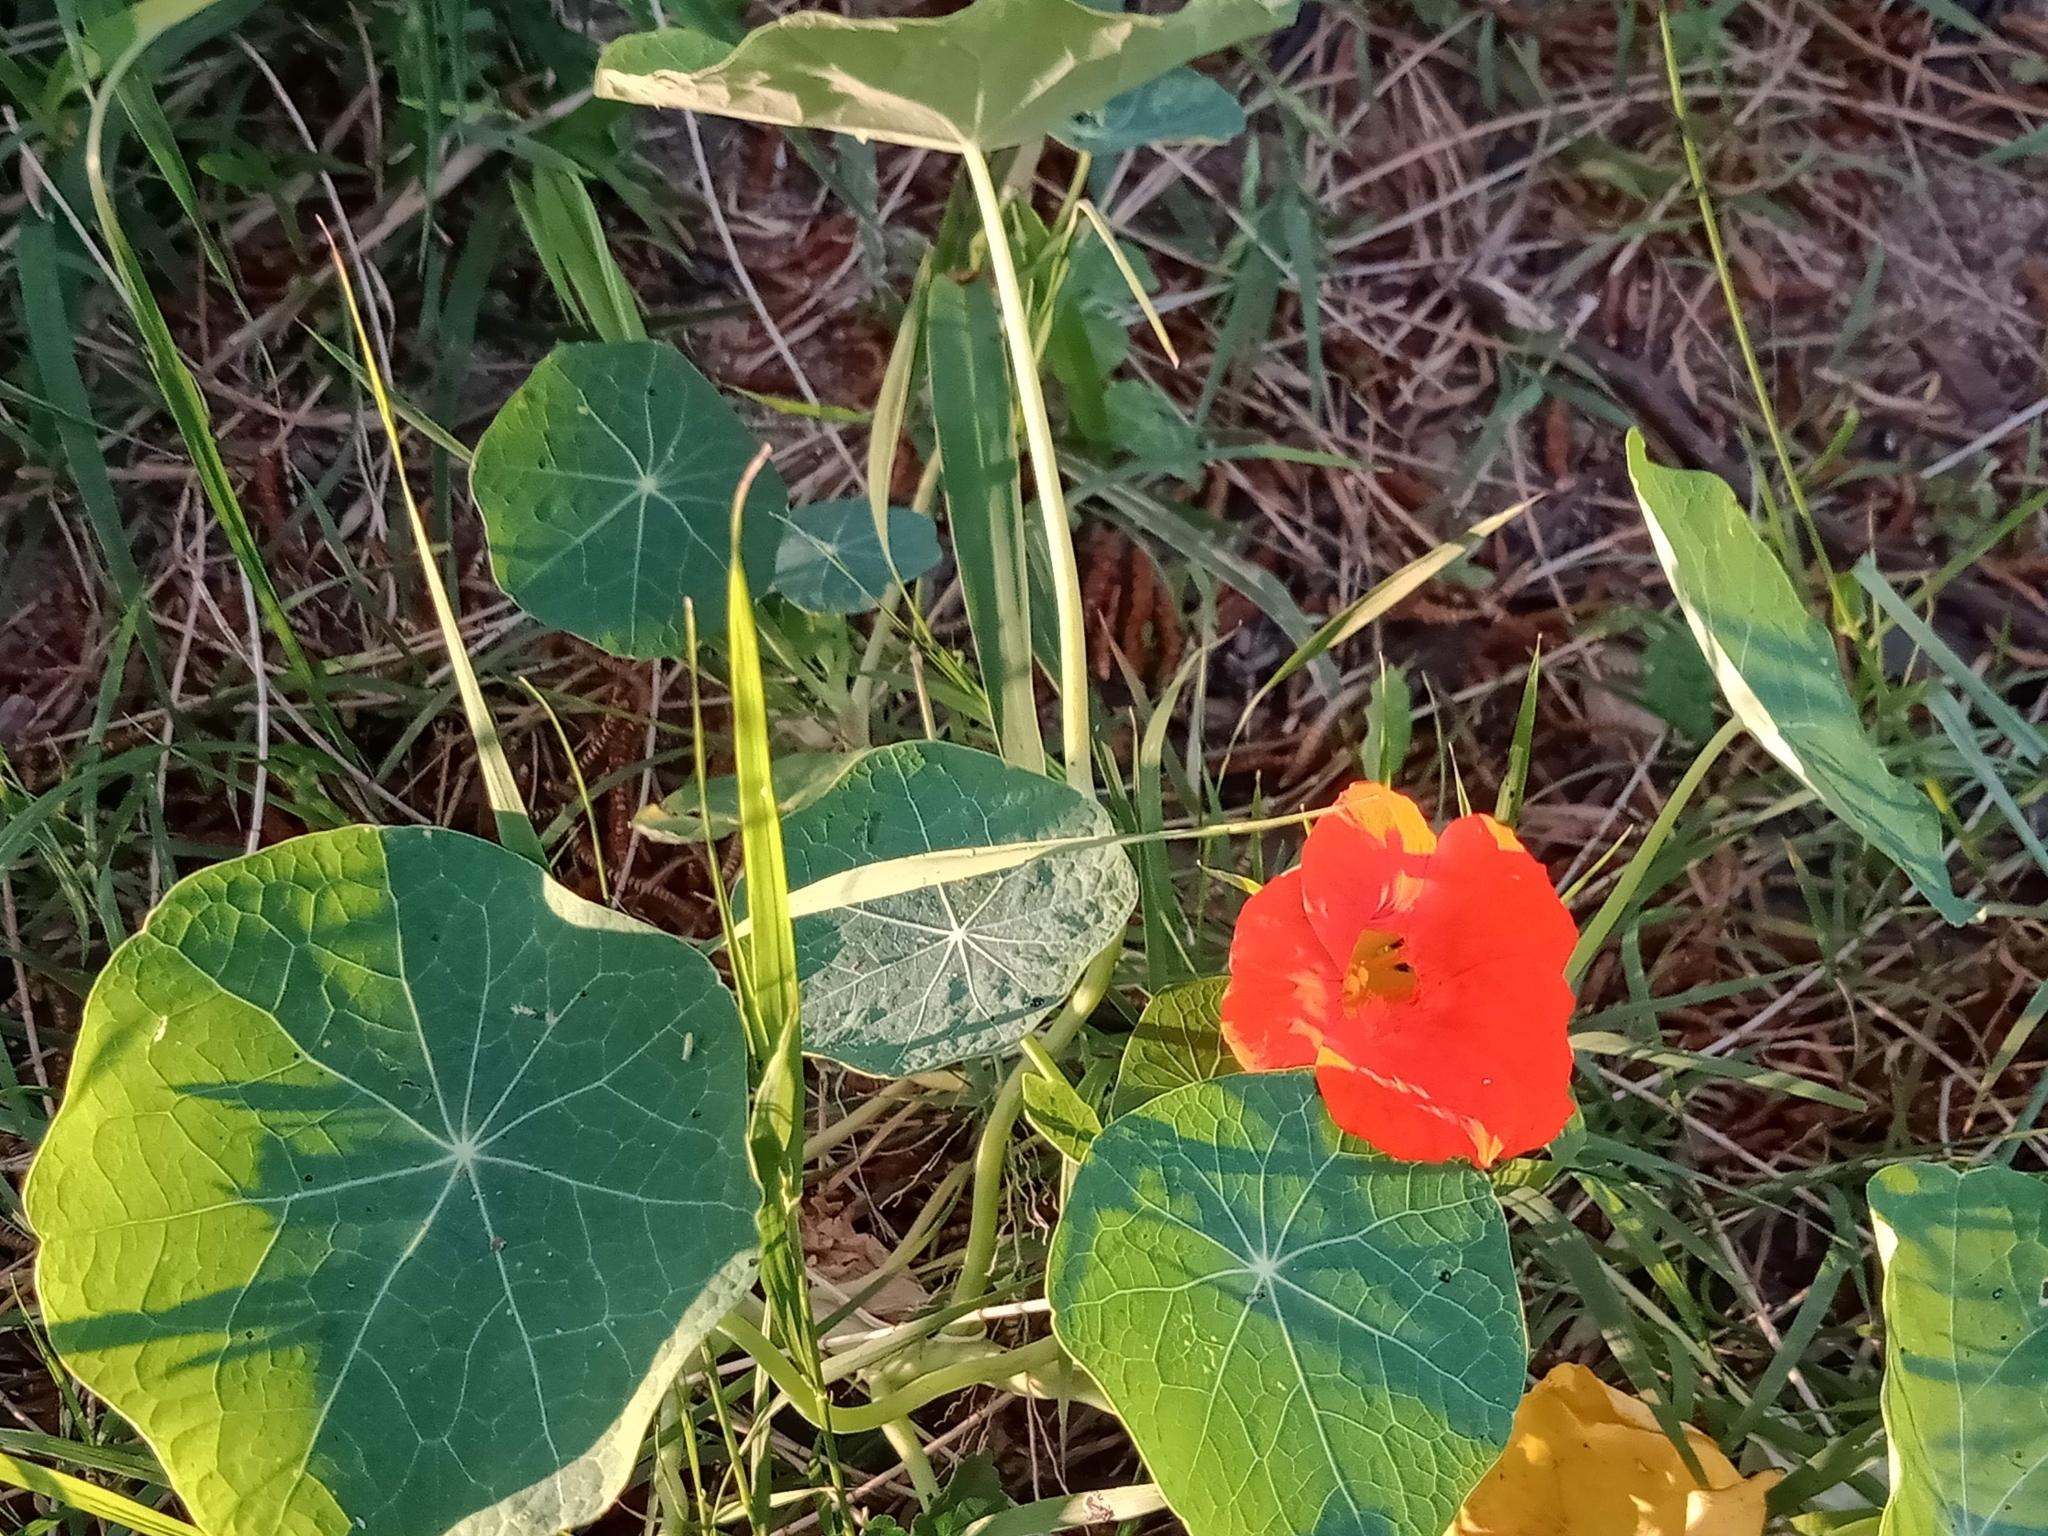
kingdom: Plantae
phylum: Tracheophyta
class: Magnoliopsida
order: Brassicales
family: Tropaeolaceae
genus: Tropaeolum
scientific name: Tropaeolum majus
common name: Nasturtium
